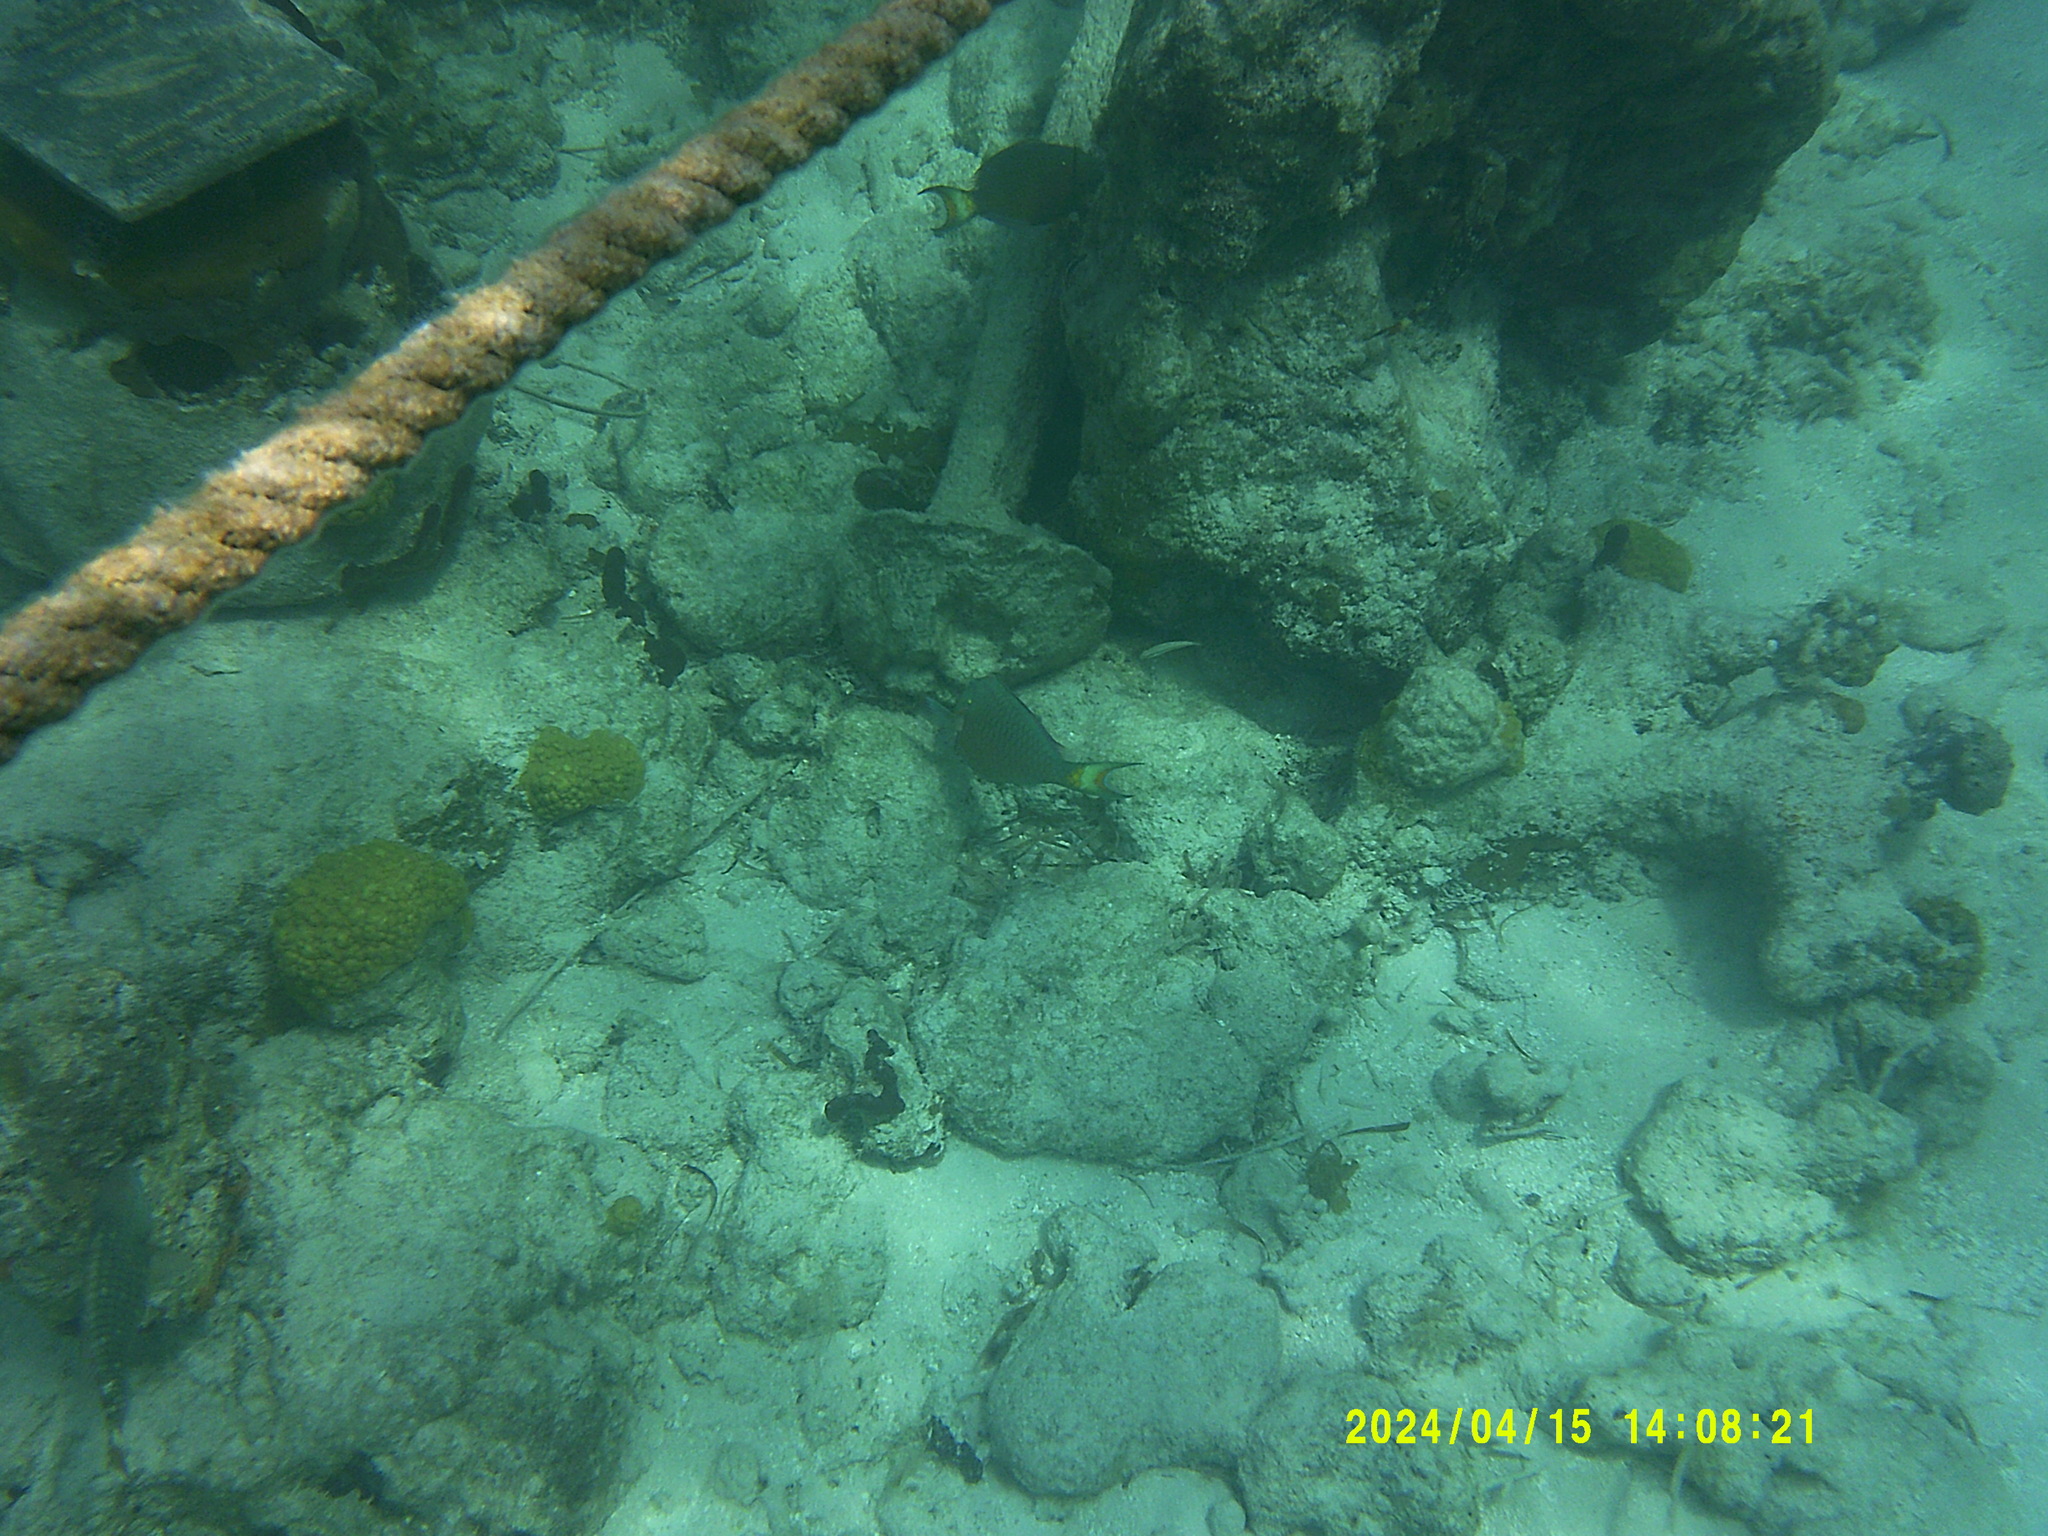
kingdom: Animalia
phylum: Chordata
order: Perciformes
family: Scaridae
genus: Sparisoma
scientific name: Sparisoma viride
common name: Stoplight parrotfish
